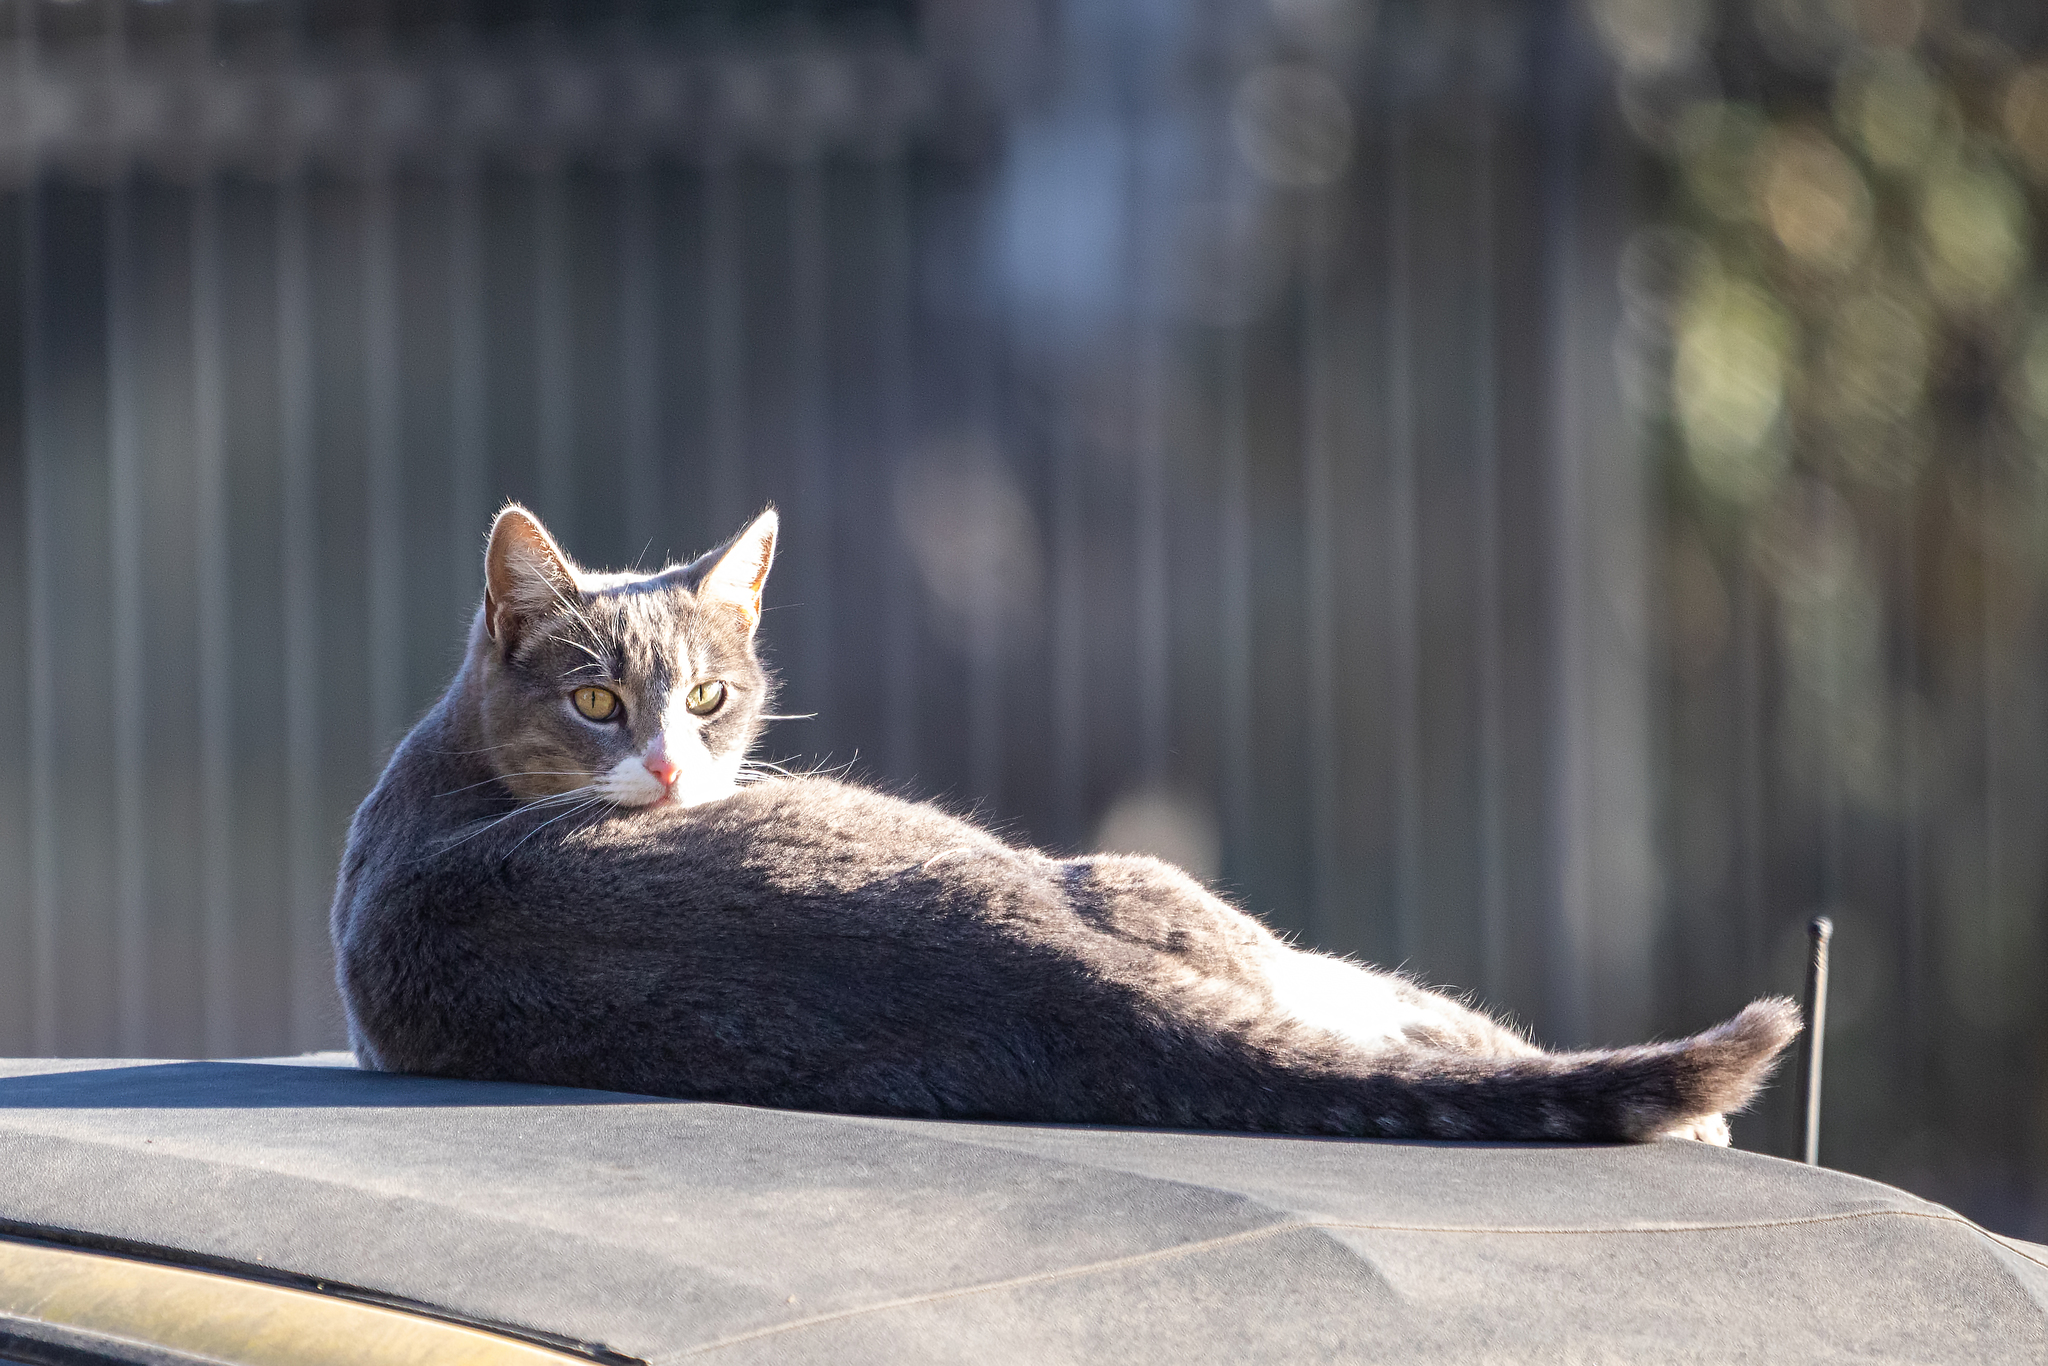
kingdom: Animalia
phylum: Chordata
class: Mammalia
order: Carnivora
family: Felidae
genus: Felis
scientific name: Felis catus
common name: Domestic cat
